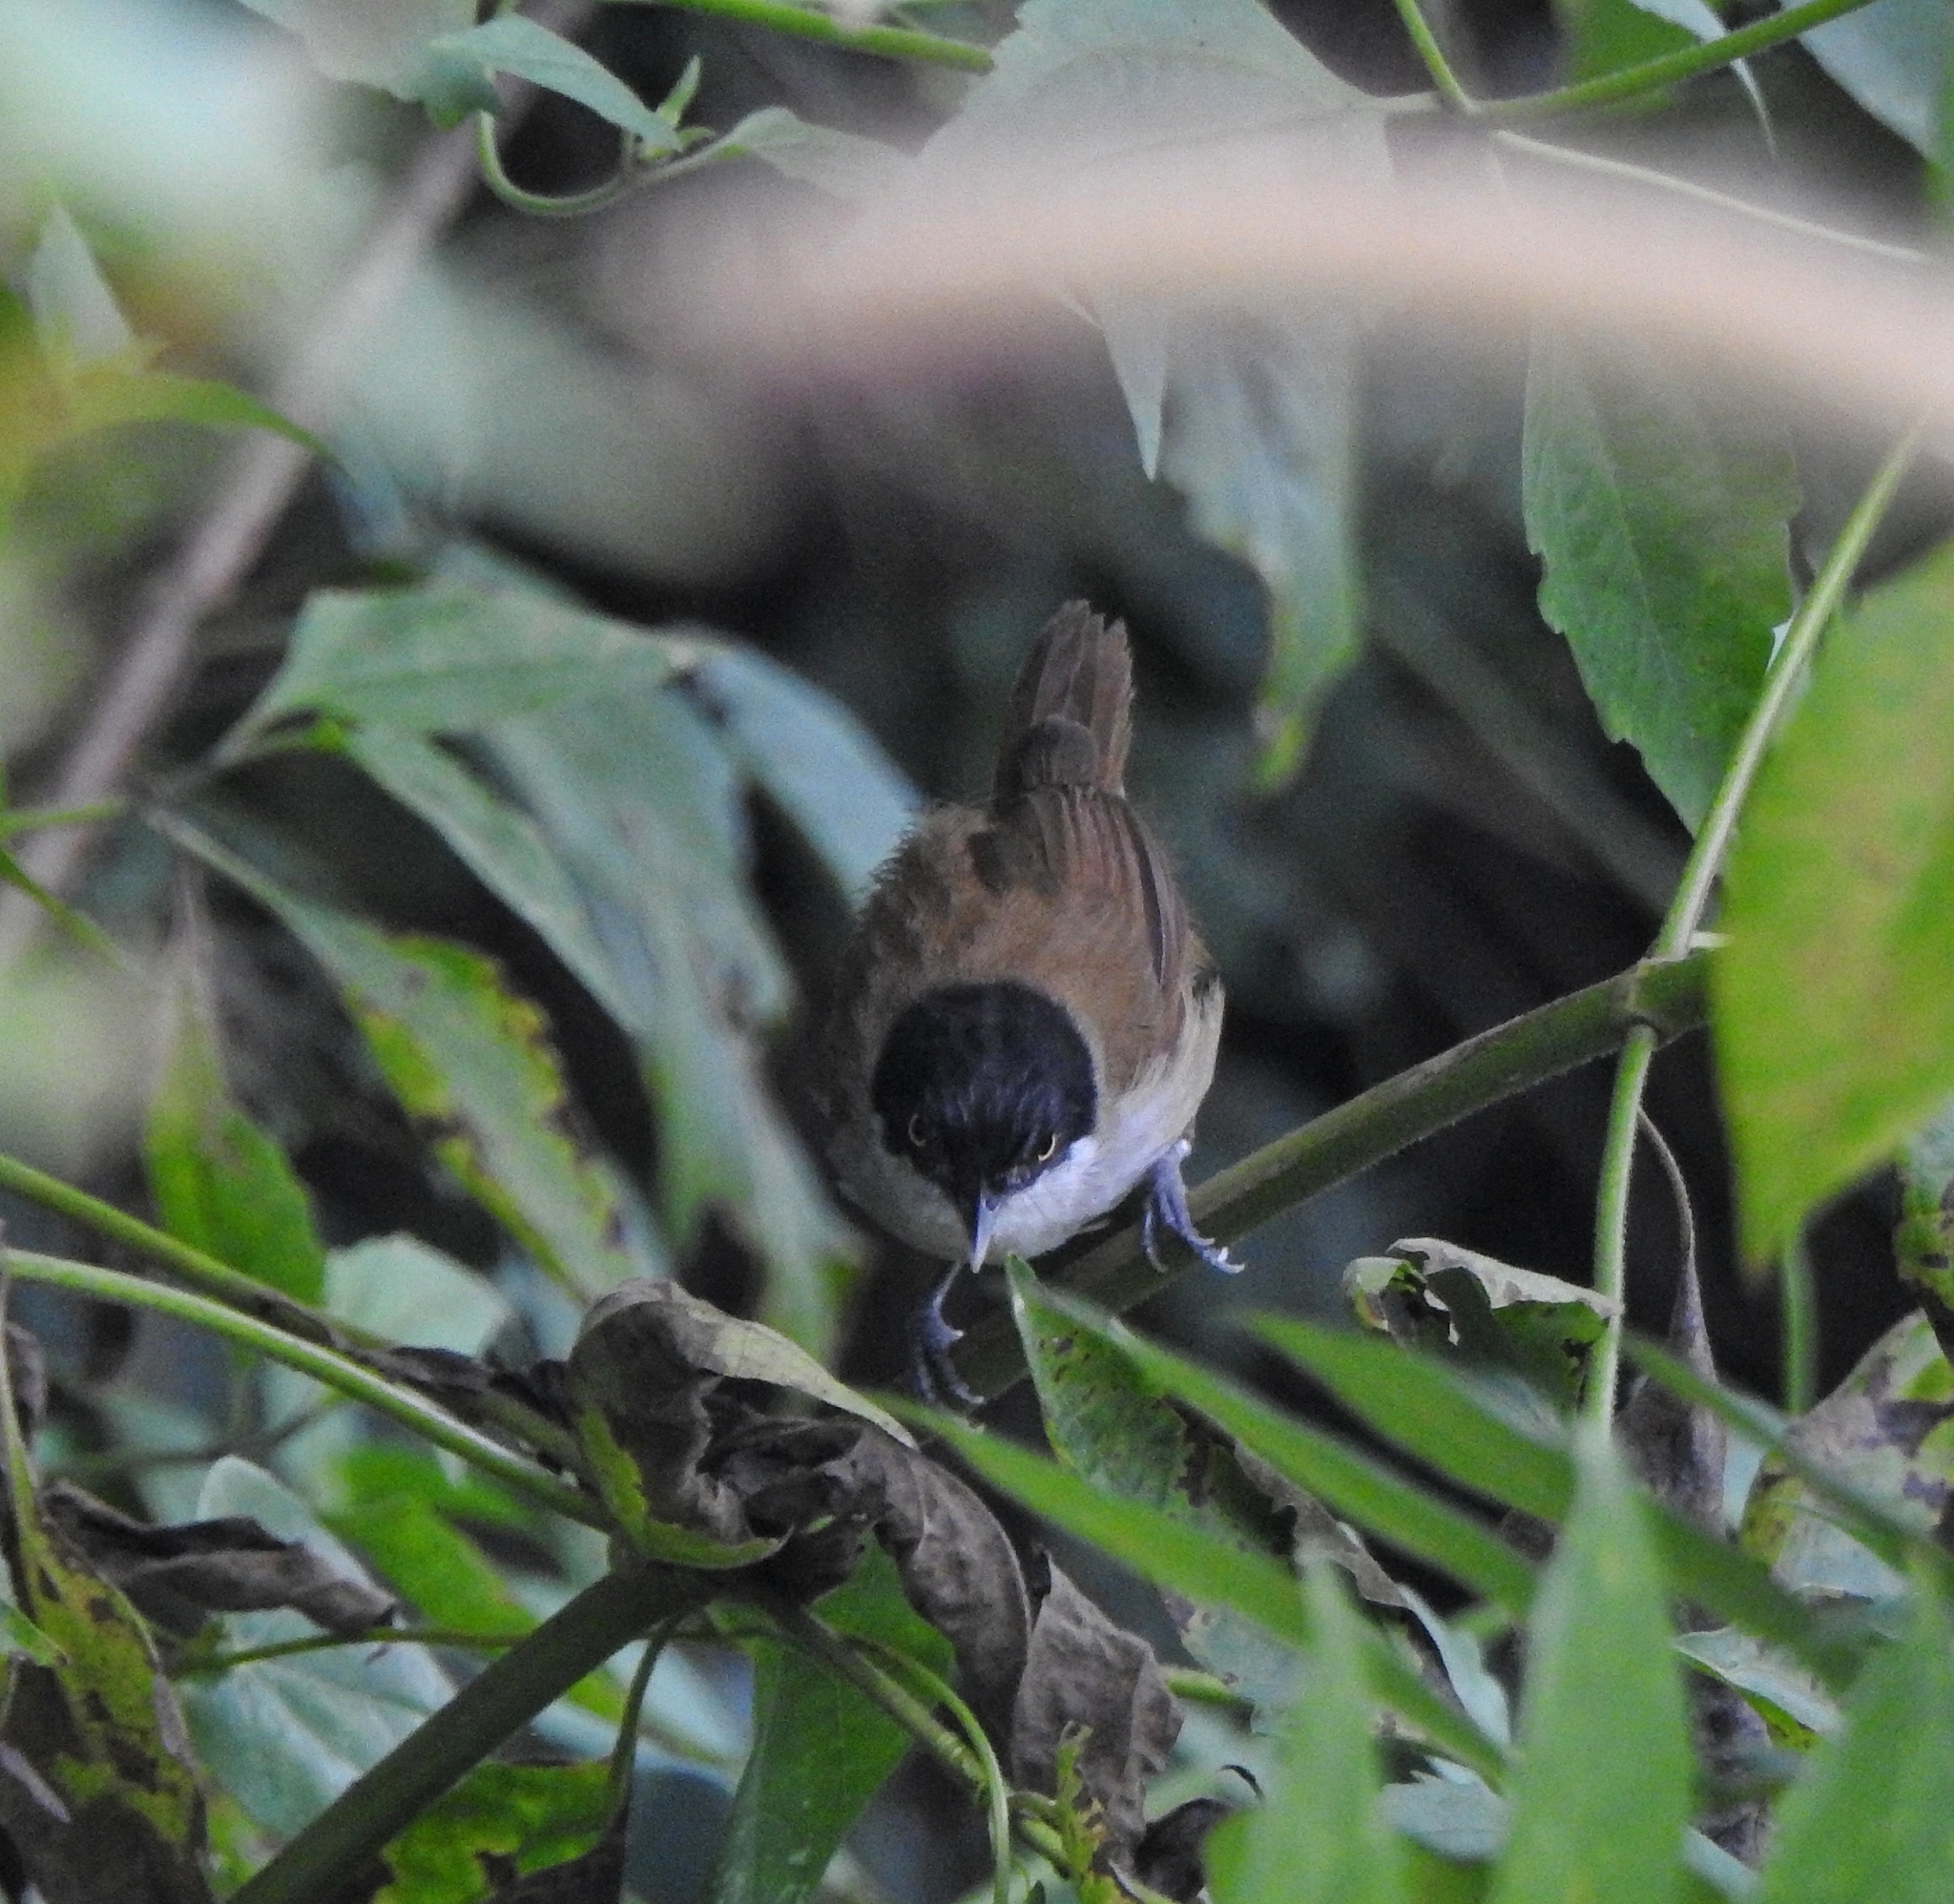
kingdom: Animalia
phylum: Chordata
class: Aves
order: Passeriformes
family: Timaliidae
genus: Rhopocichla
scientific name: Rhopocichla atriceps
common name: Dark-fronted babbler
